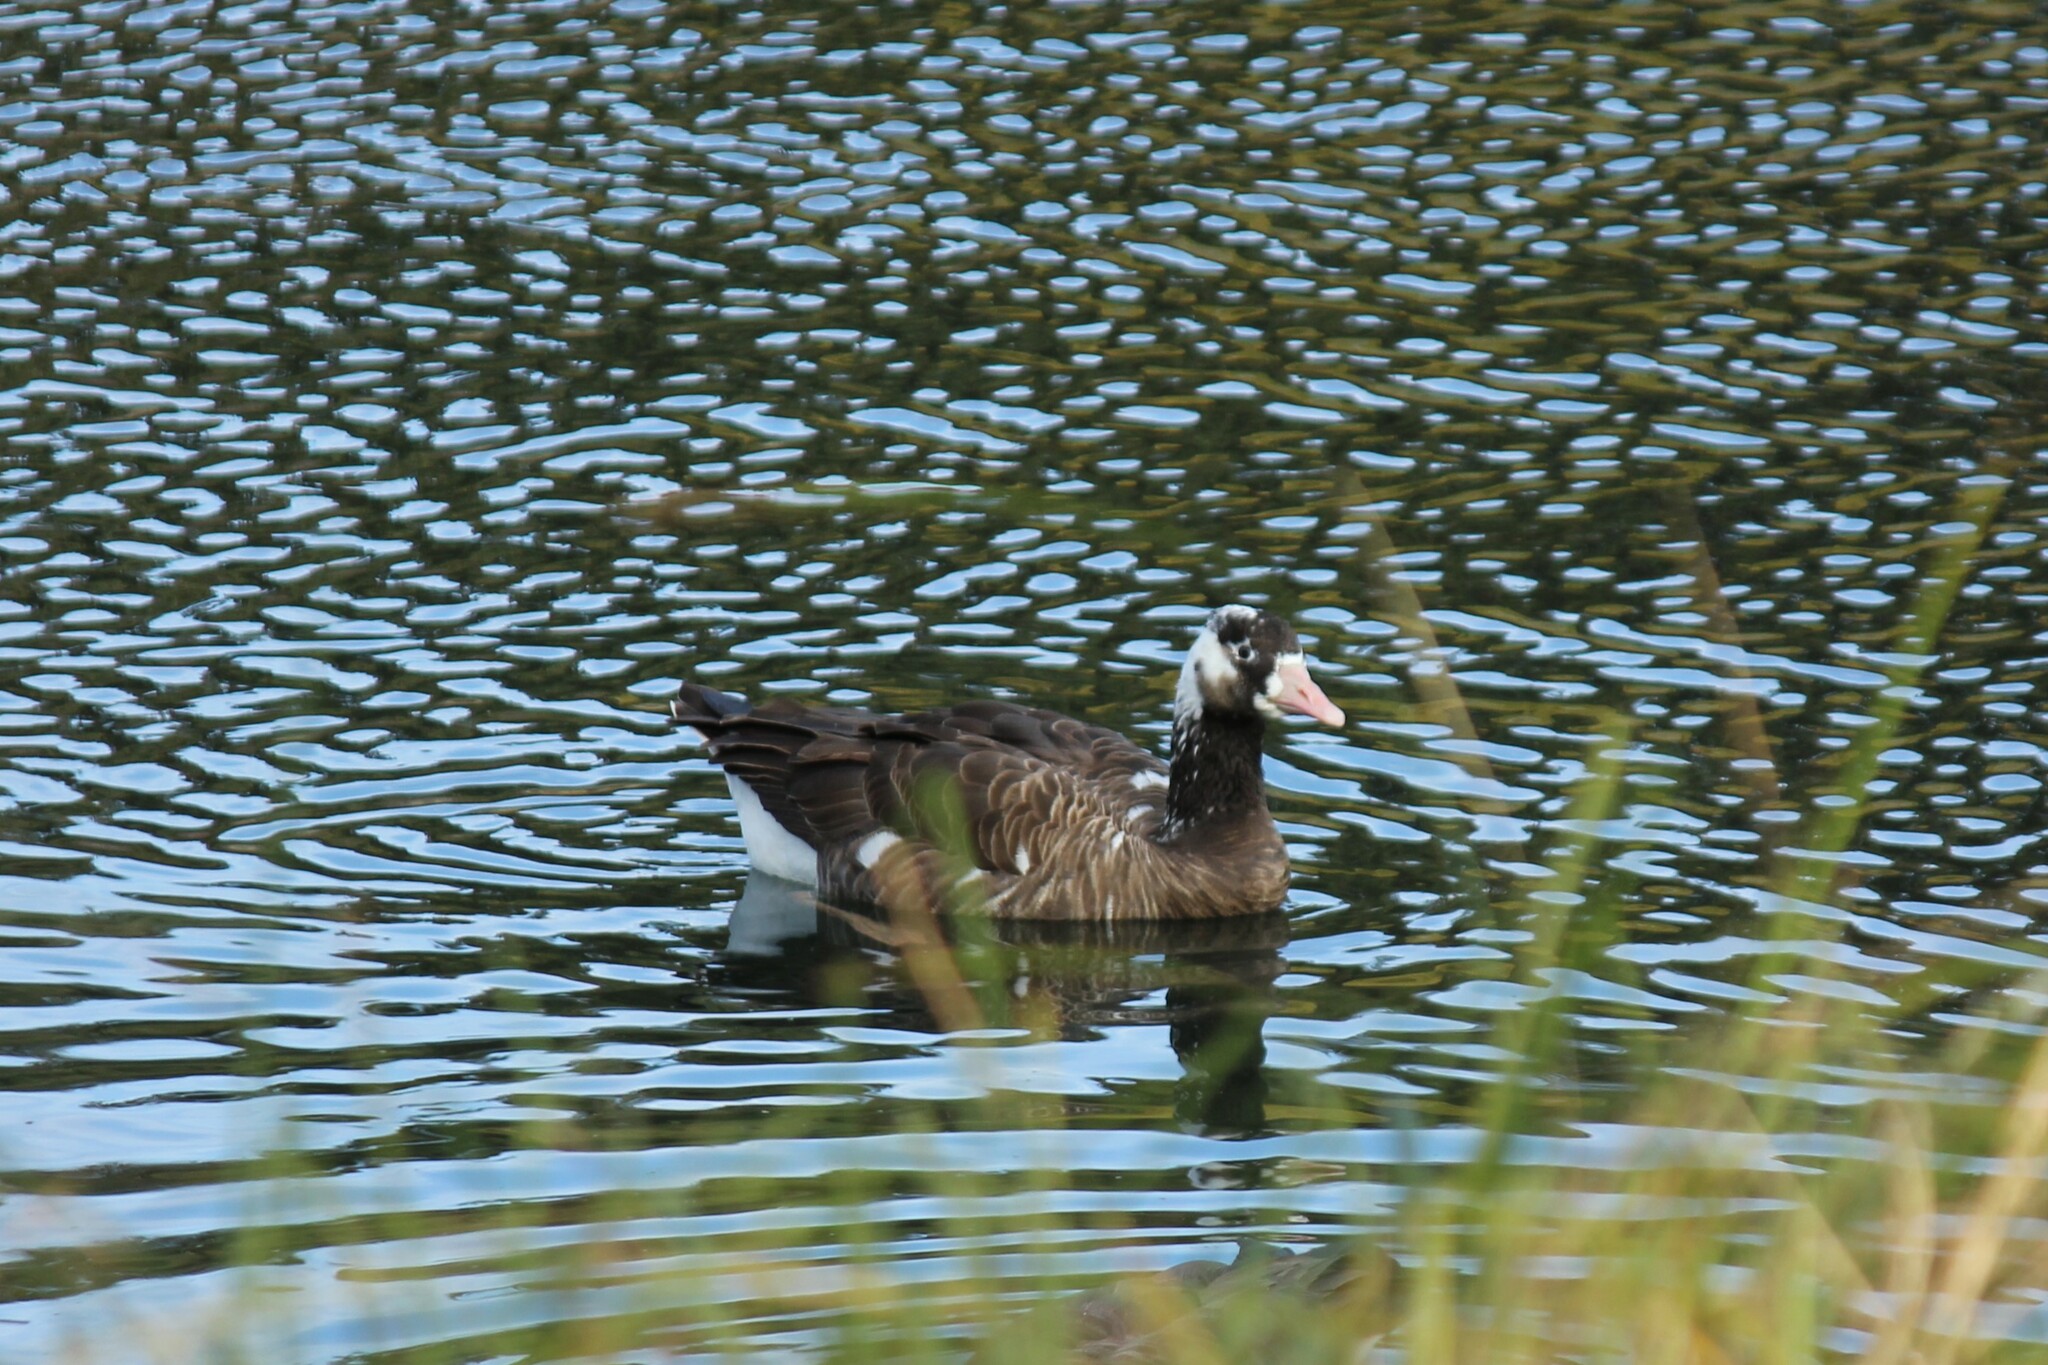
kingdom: Animalia
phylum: Chordata
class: Aves
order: Anseriformes
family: Anatidae
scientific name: Anatidae
